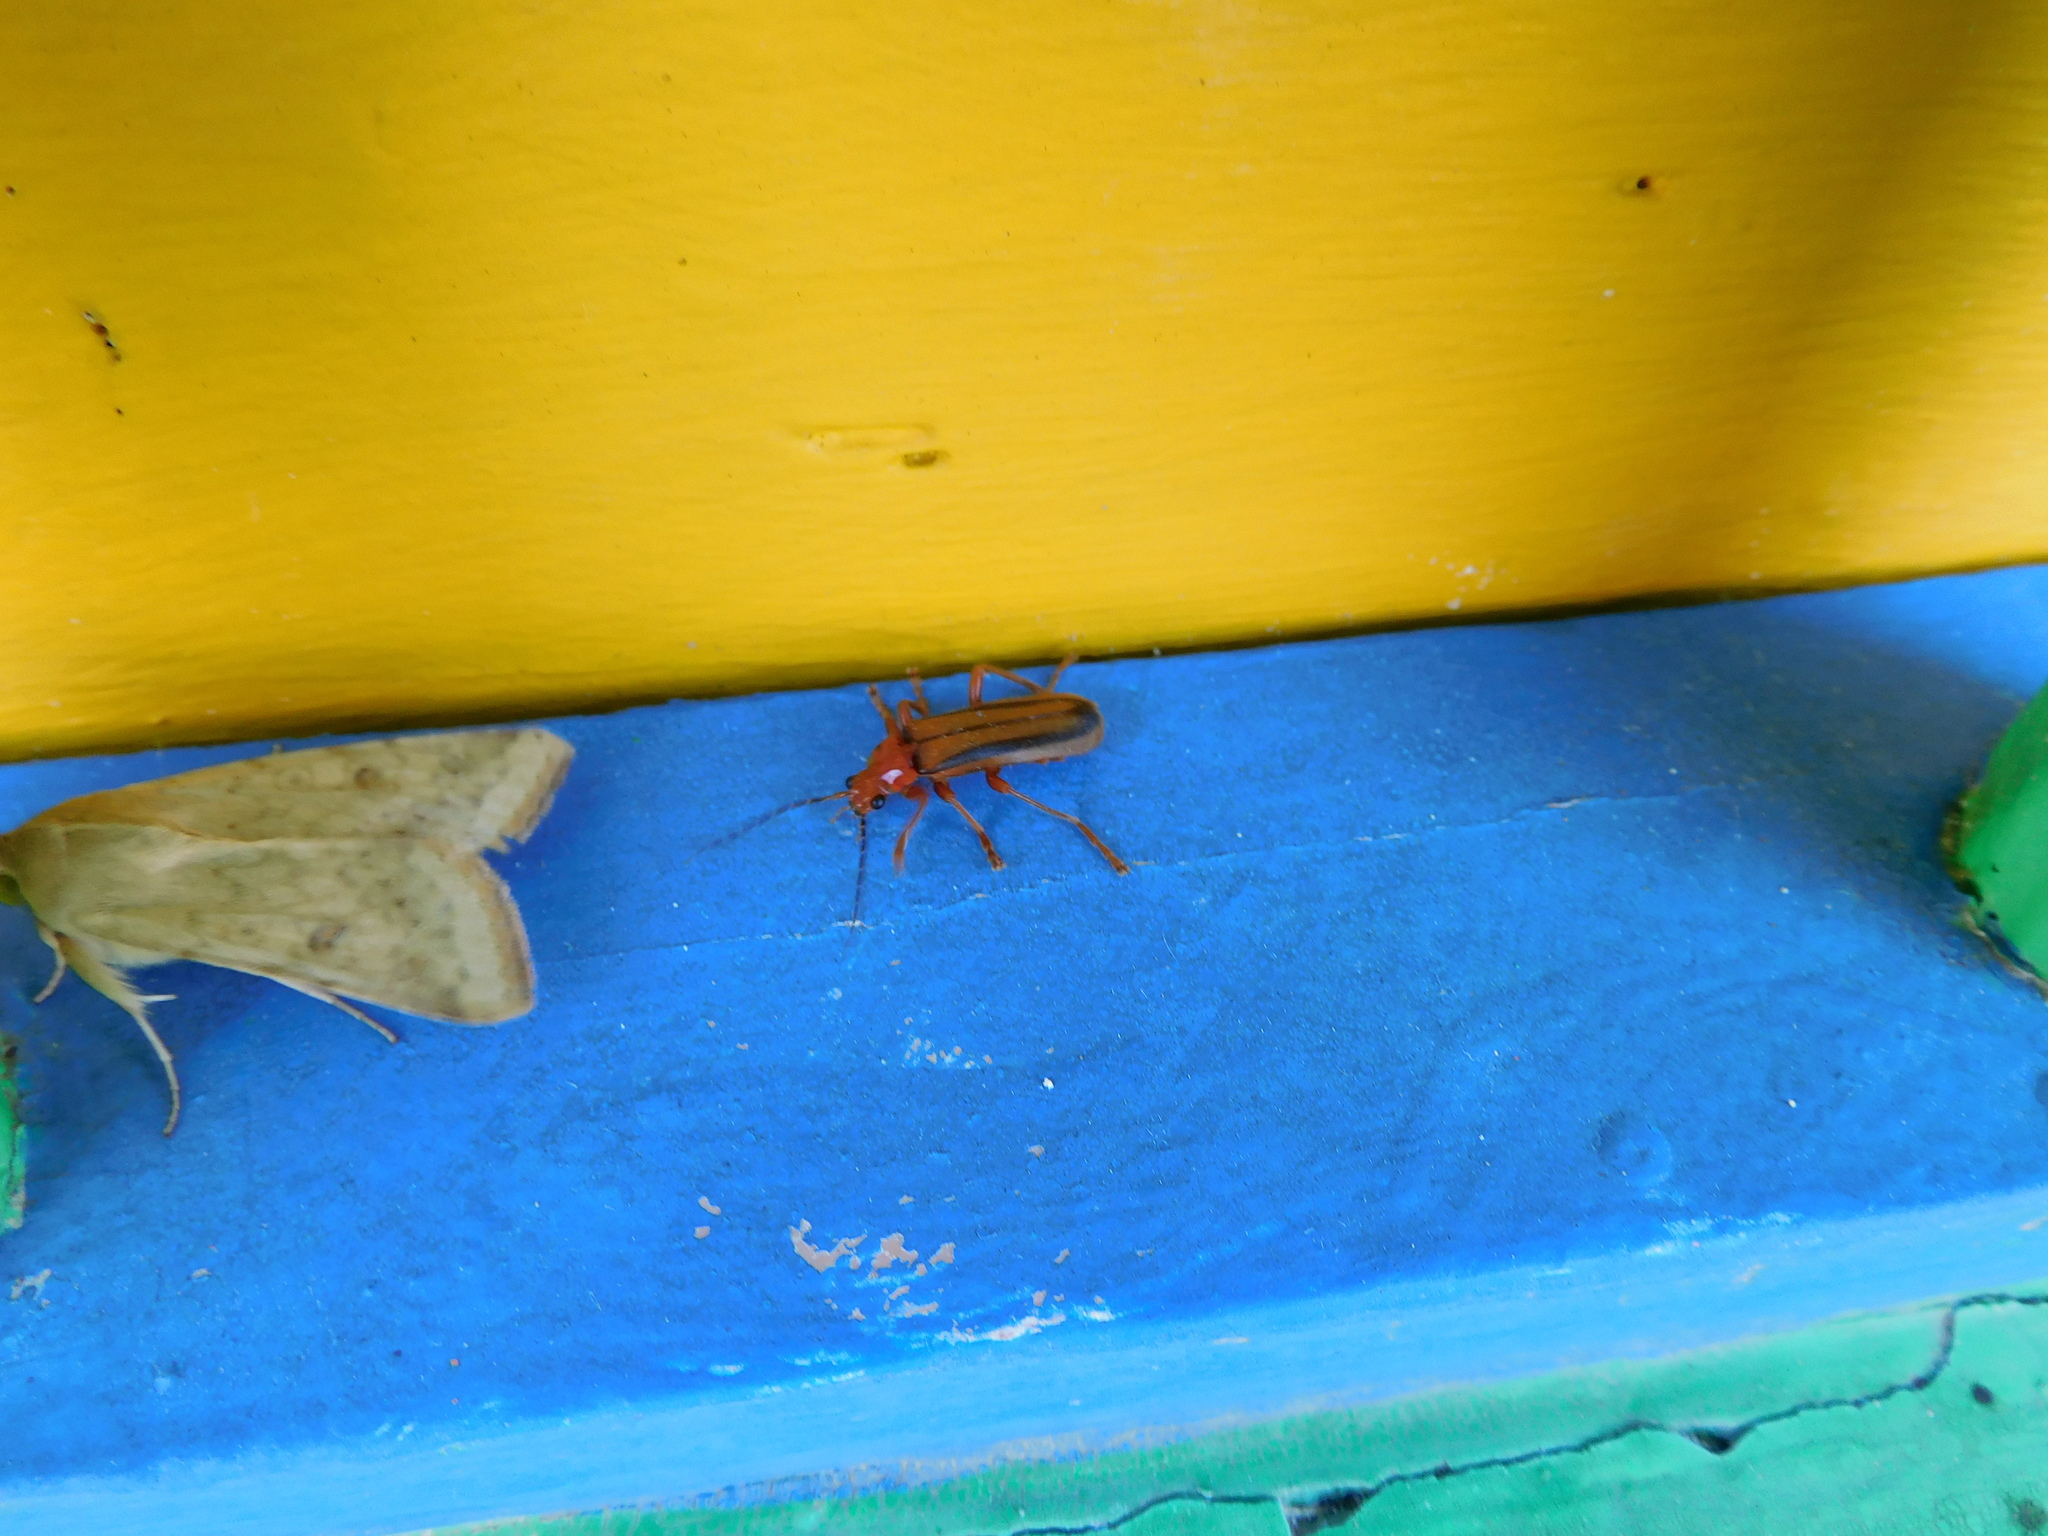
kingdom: Animalia
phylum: Arthropoda
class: Insecta
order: Coleoptera
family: Cantharidae
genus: Discodon
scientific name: Discodon
